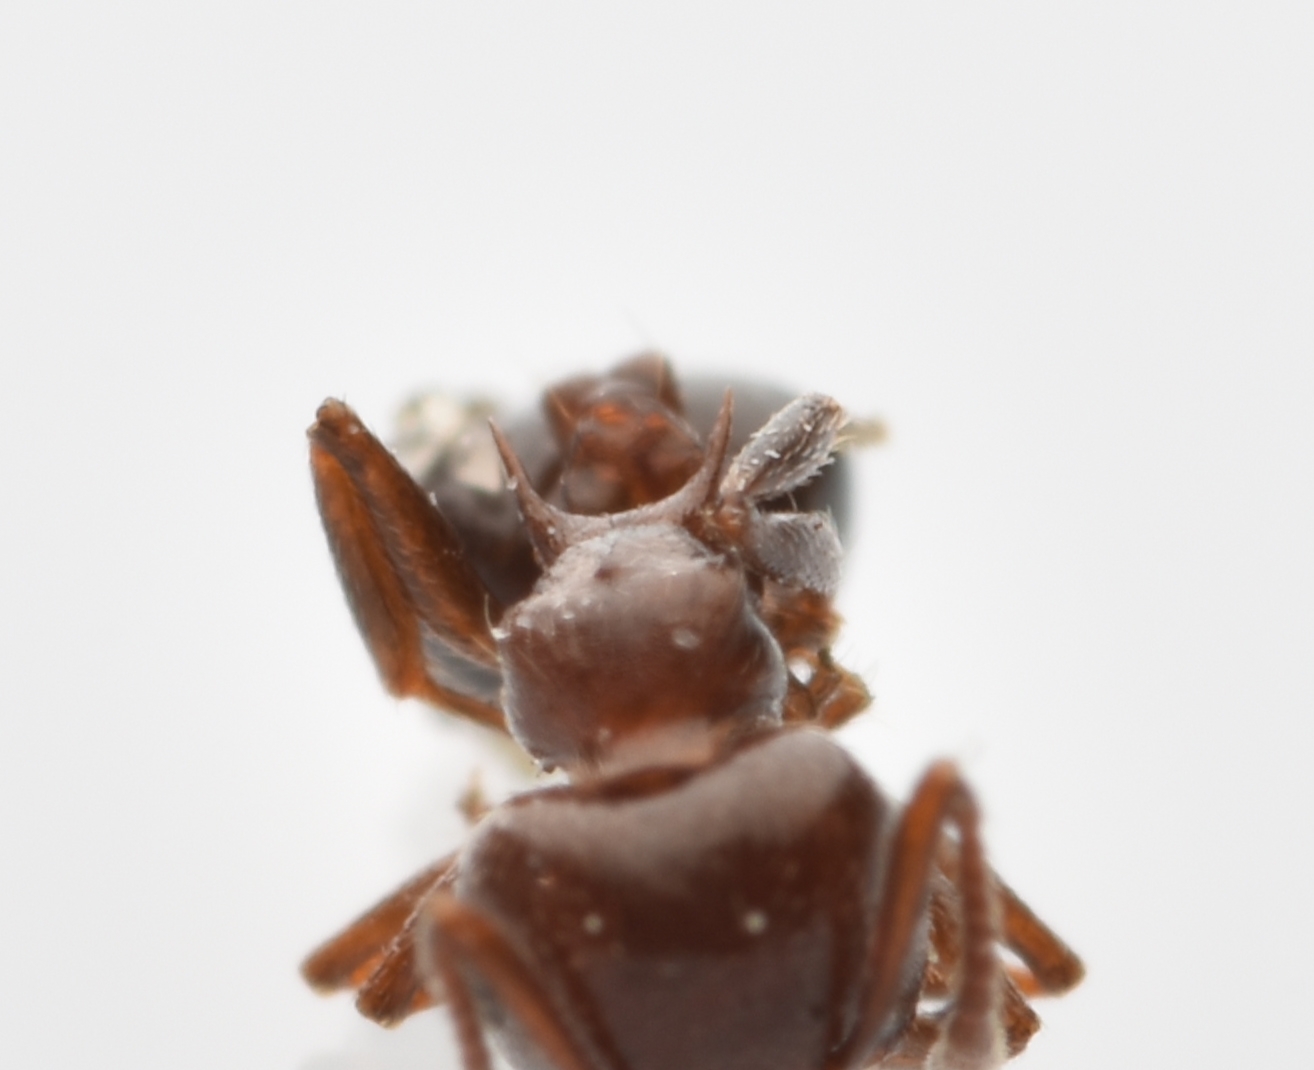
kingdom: Animalia
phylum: Arthropoda
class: Insecta
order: Hymenoptera
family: Formicidae
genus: Crematogaster
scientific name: Crematogaster laeviuscula
